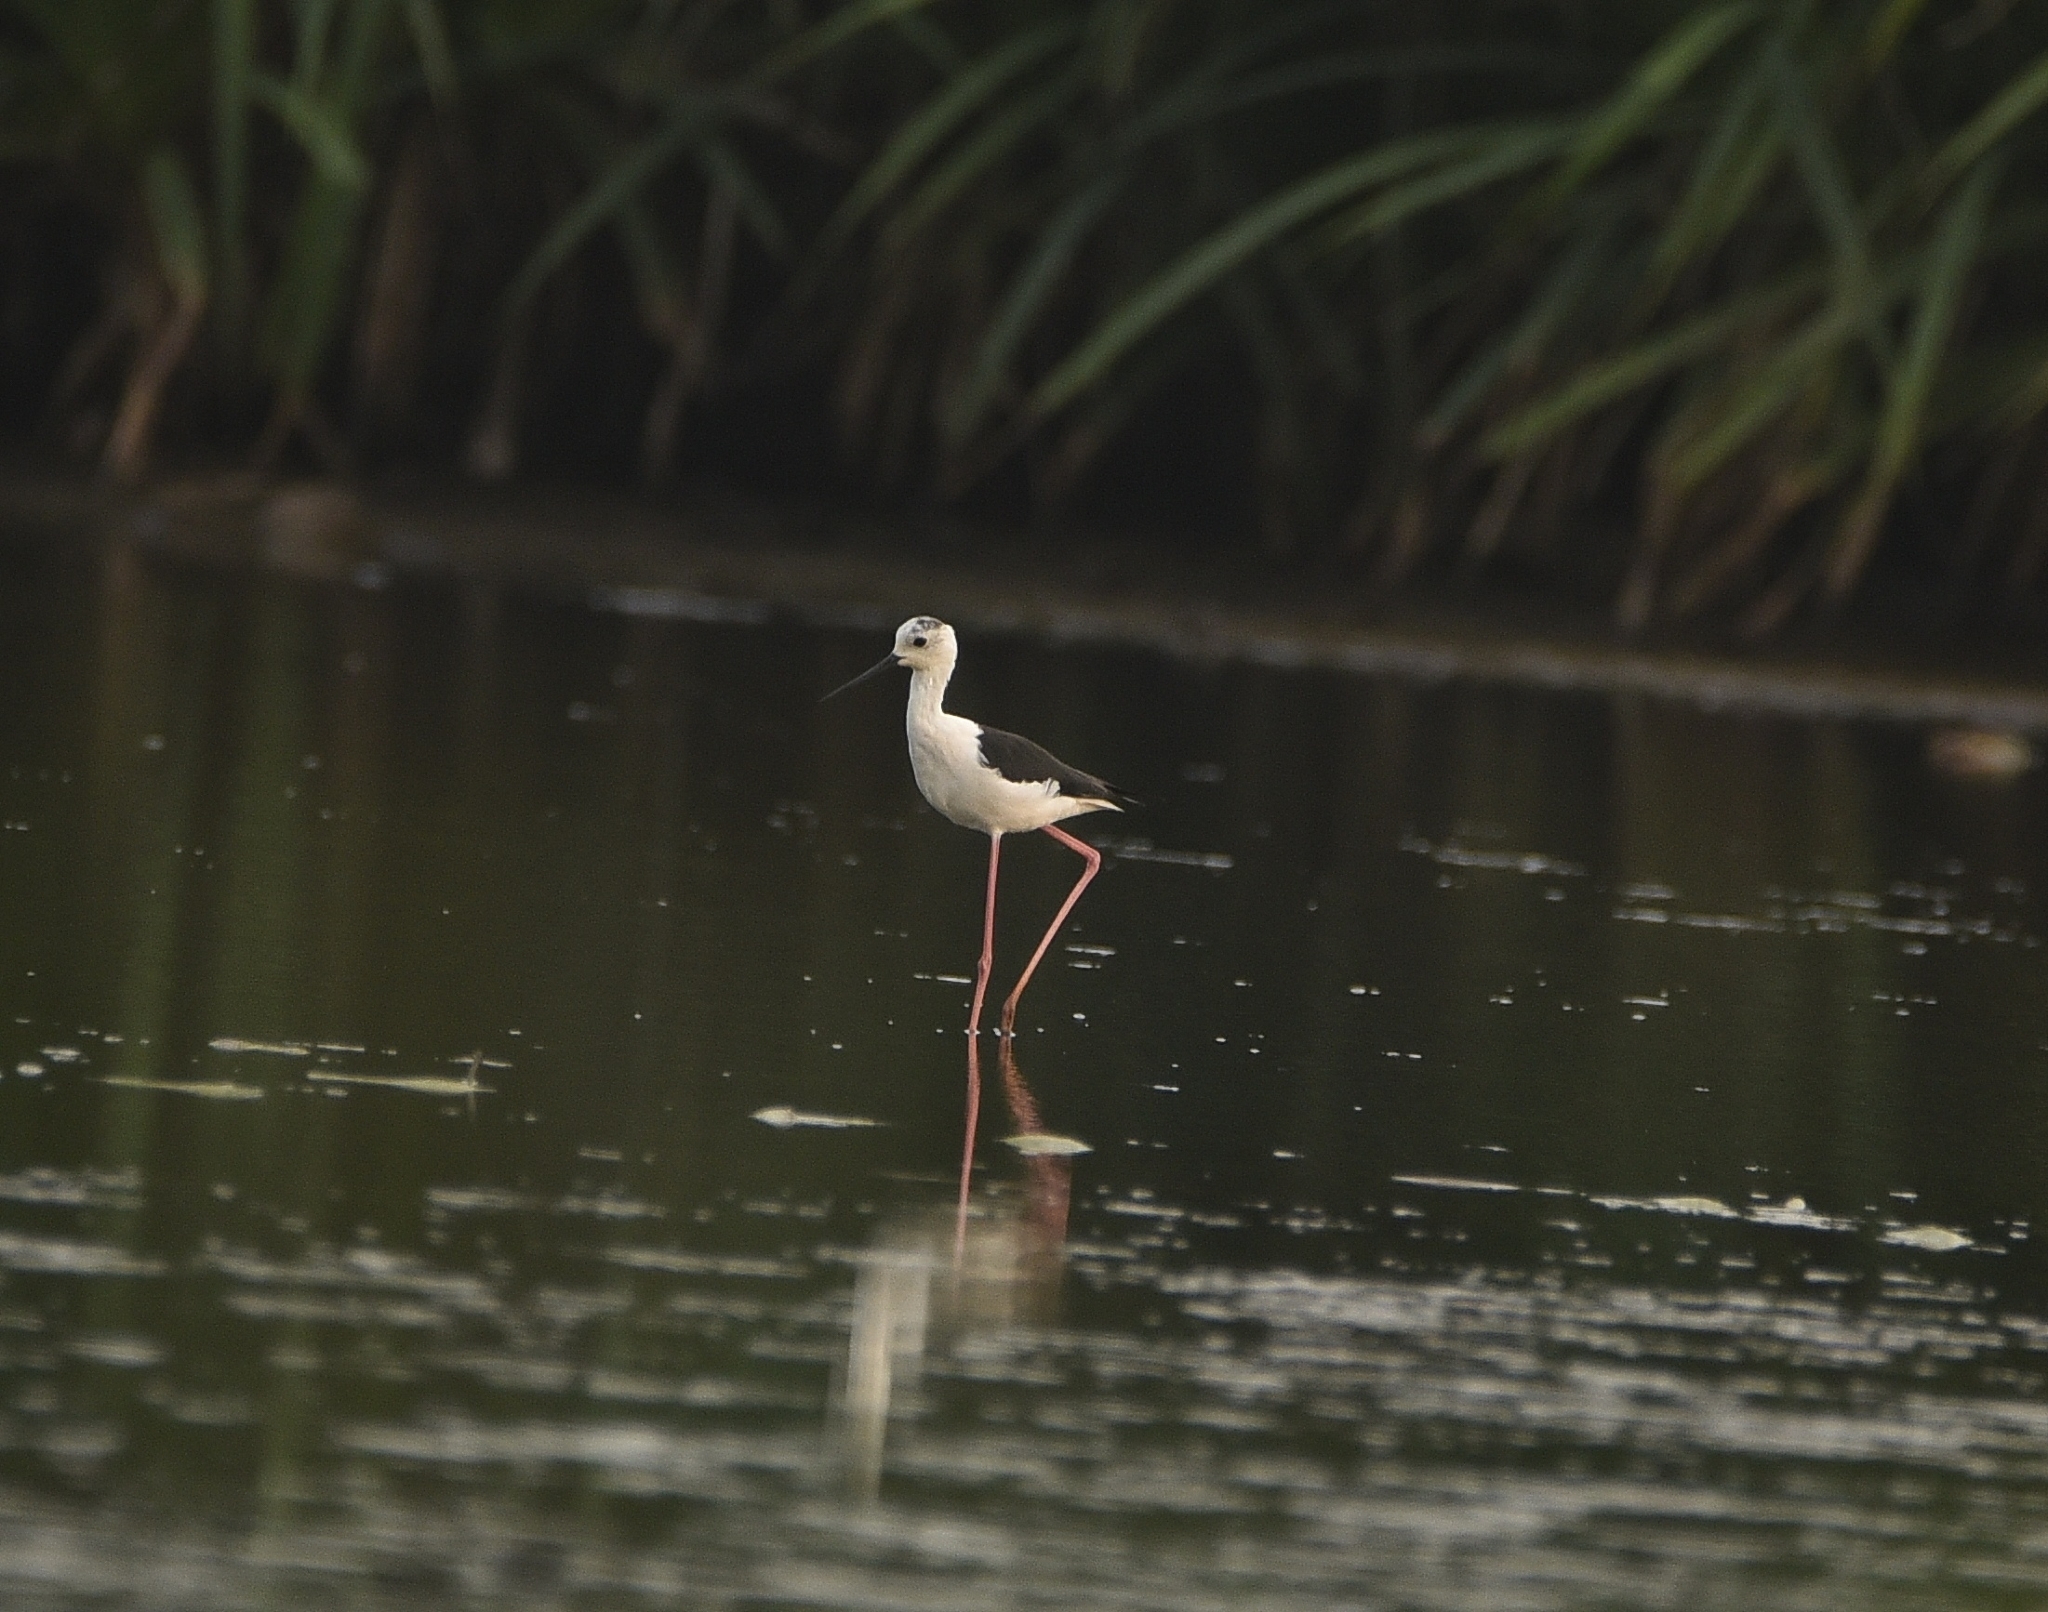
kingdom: Animalia
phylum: Chordata
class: Aves
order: Charadriiformes
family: Recurvirostridae
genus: Himantopus
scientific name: Himantopus himantopus
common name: Black-winged stilt
